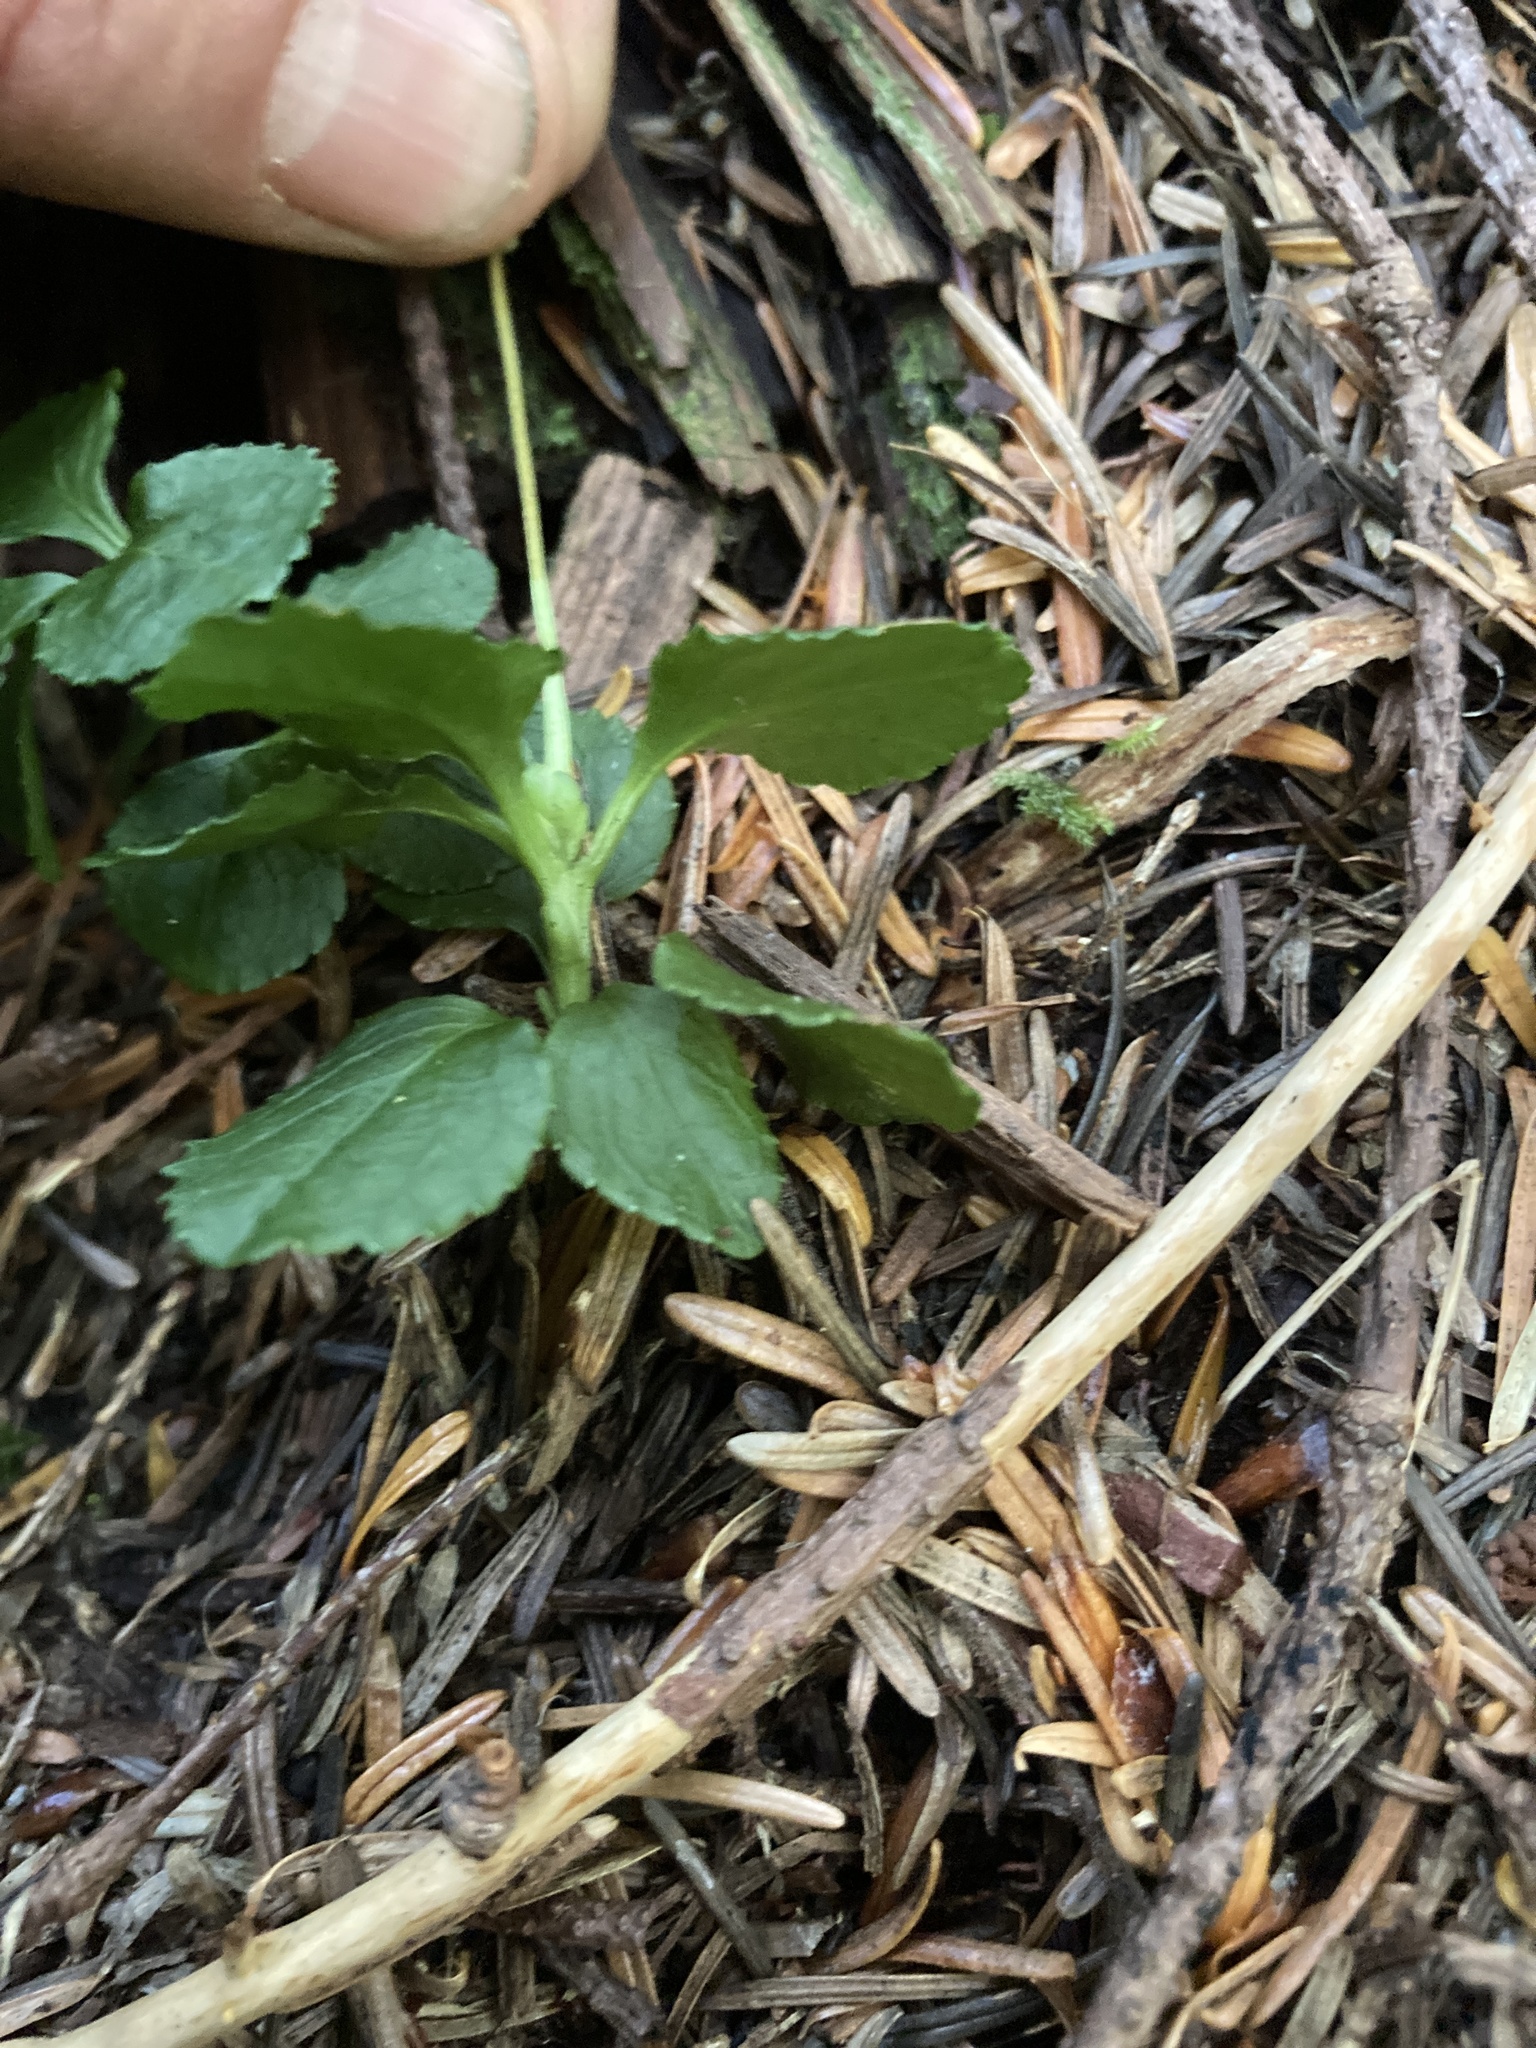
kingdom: Plantae
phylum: Tracheophyta
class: Magnoliopsida
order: Ericales
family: Ericaceae
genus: Moneses
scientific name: Moneses uniflora
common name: One-flowered wintergreen
